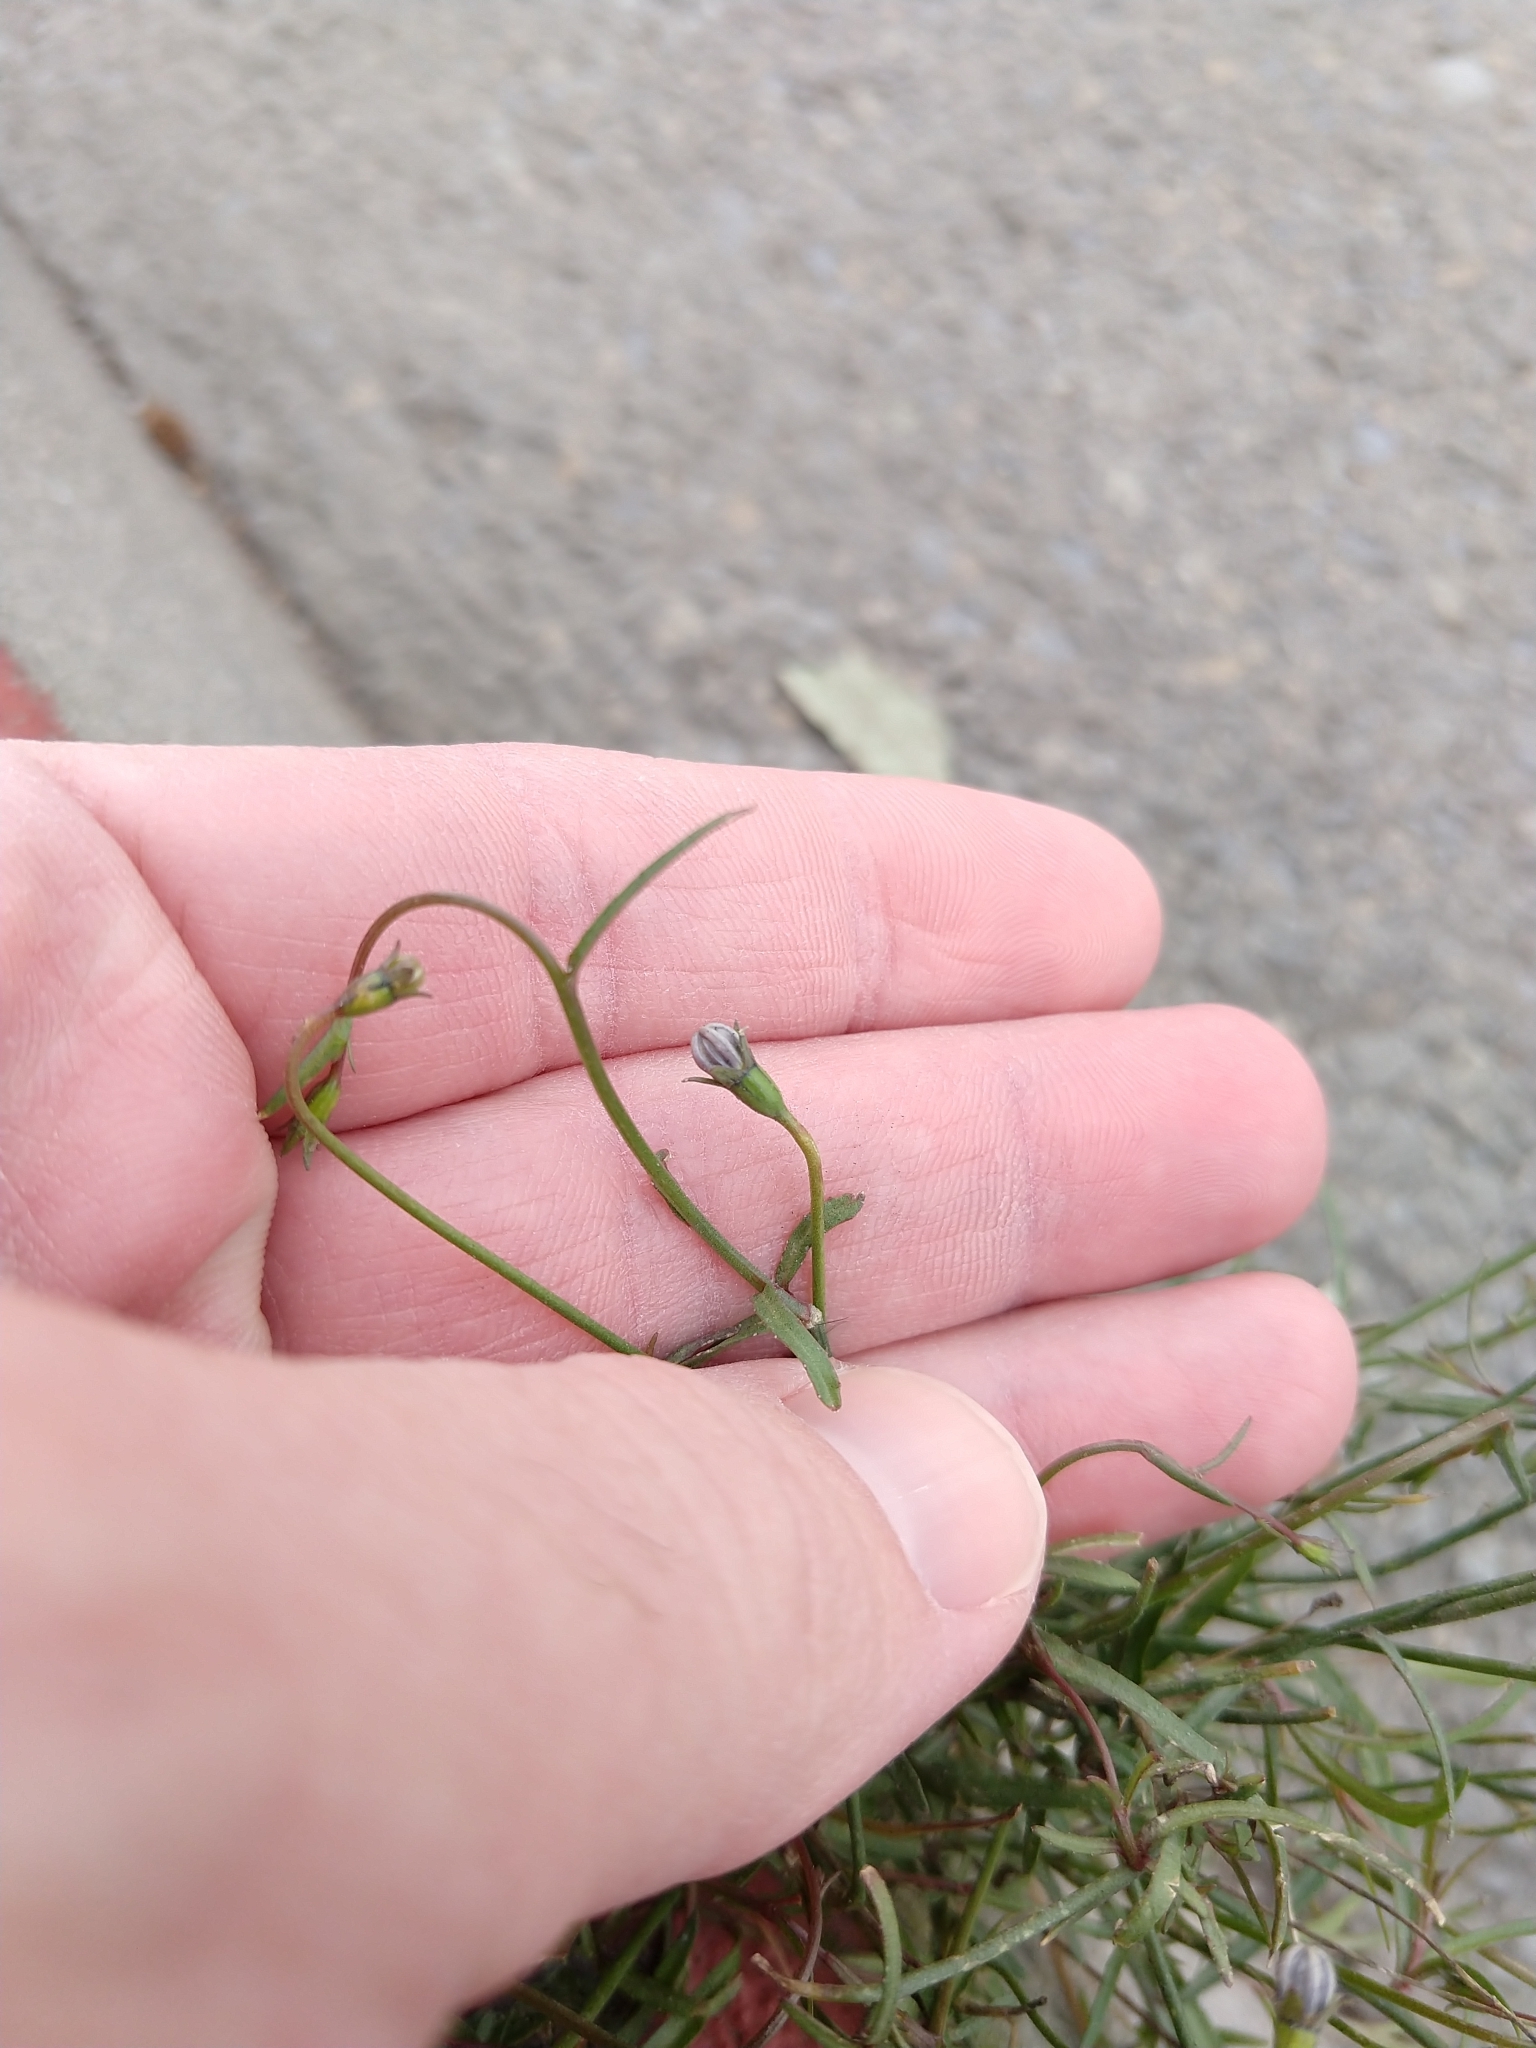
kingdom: Plantae
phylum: Tracheophyta
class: Magnoliopsida
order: Asterales
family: Campanulaceae
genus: Wahlenbergia
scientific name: Wahlenbergia marginata
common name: Southern rockbell
